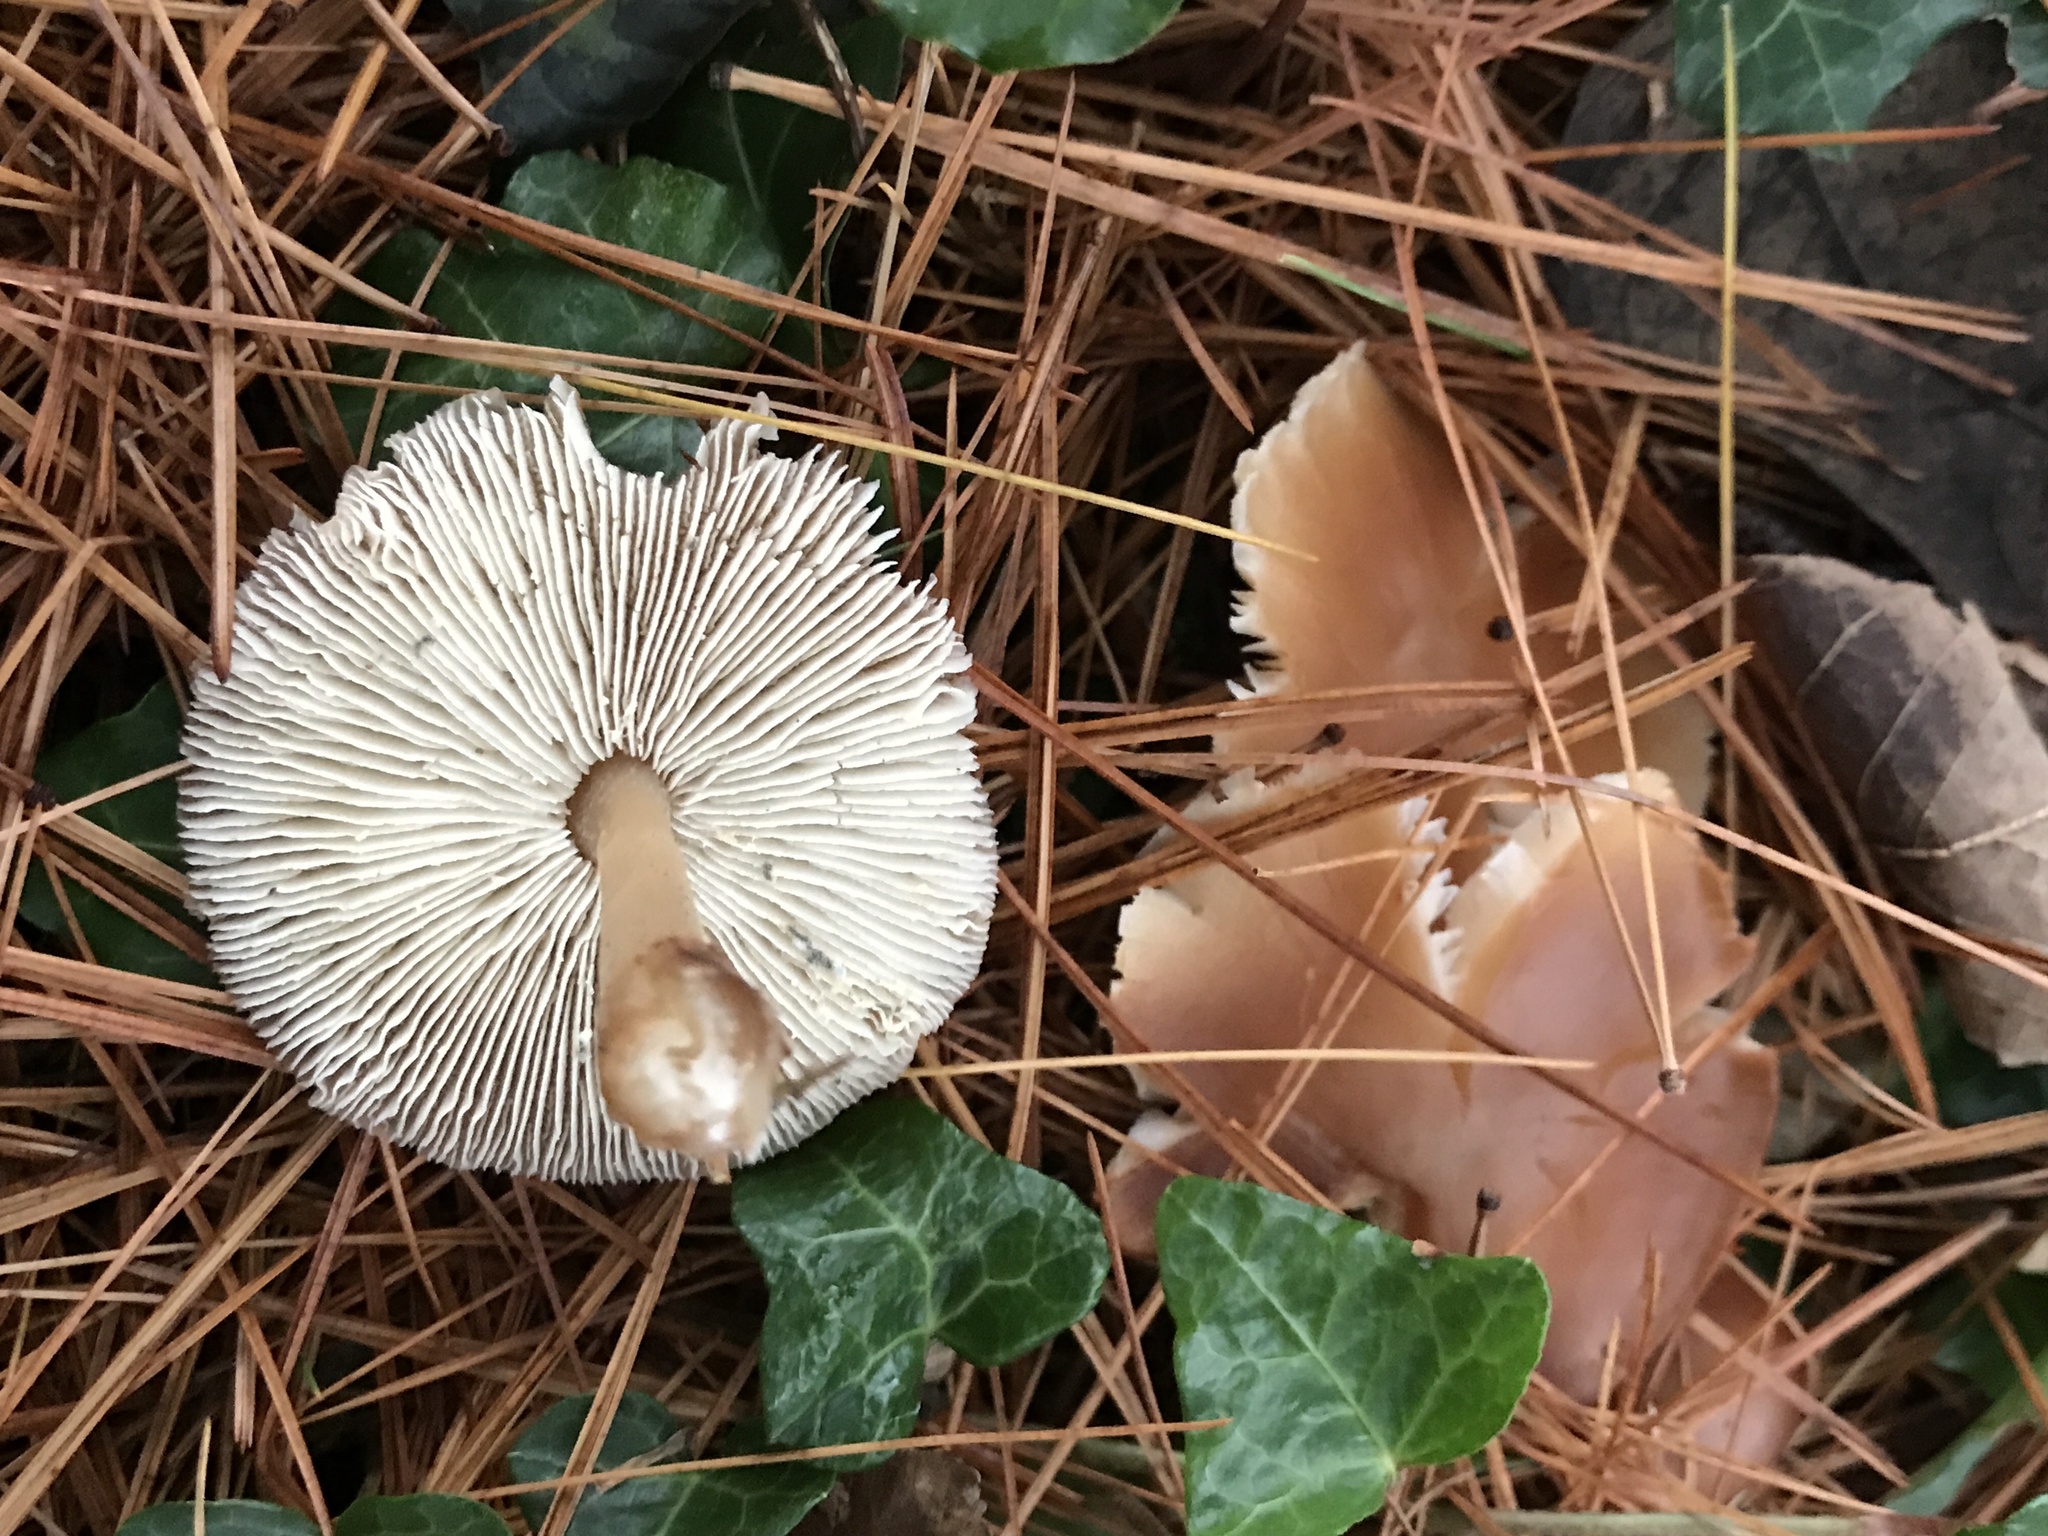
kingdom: Fungi
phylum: Basidiomycota
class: Agaricomycetes
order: Agaricales
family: Omphalotaceae
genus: Rhodocollybia
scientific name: Rhodocollybia butyracea
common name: Butter cap
